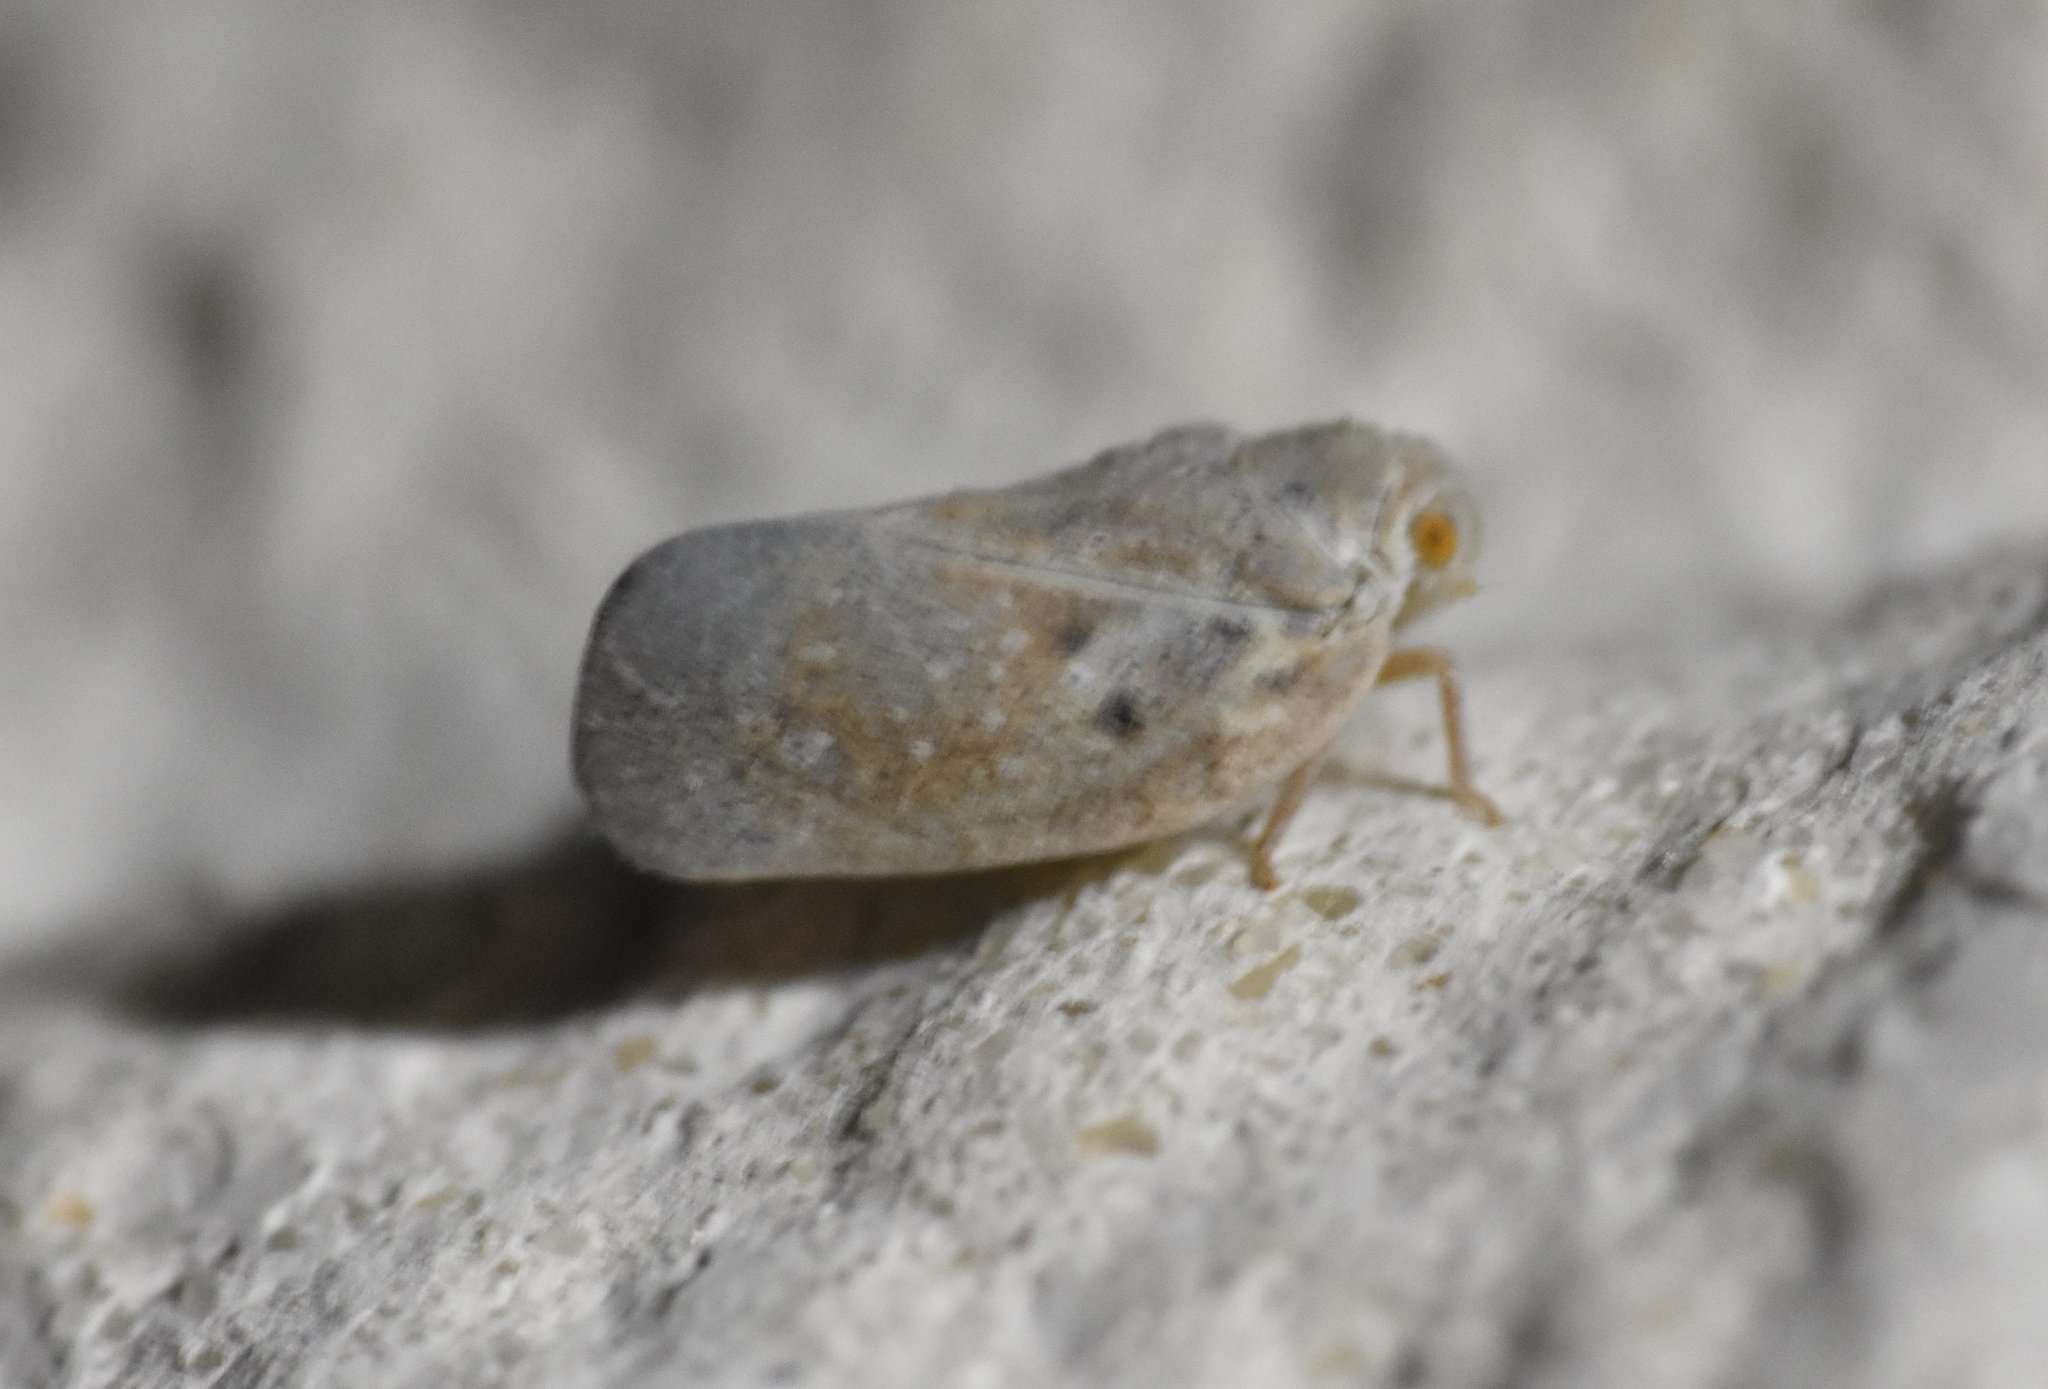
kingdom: Animalia
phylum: Arthropoda
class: Insecta
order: Hemiptera
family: Flatidae
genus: Metcalfa
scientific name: Metcalfa pruinosa
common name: Citrus flatid planthopper
